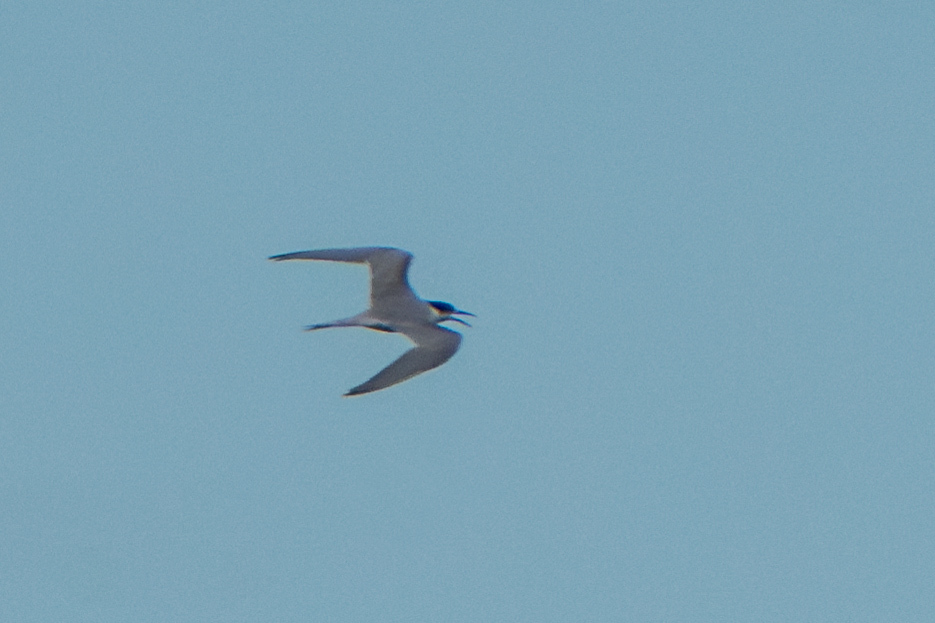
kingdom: Animalia
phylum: Chordata
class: Aves
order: Charadriiformes
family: Laridae
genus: Sterna
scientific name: Sterna hirundo
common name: Common tern
